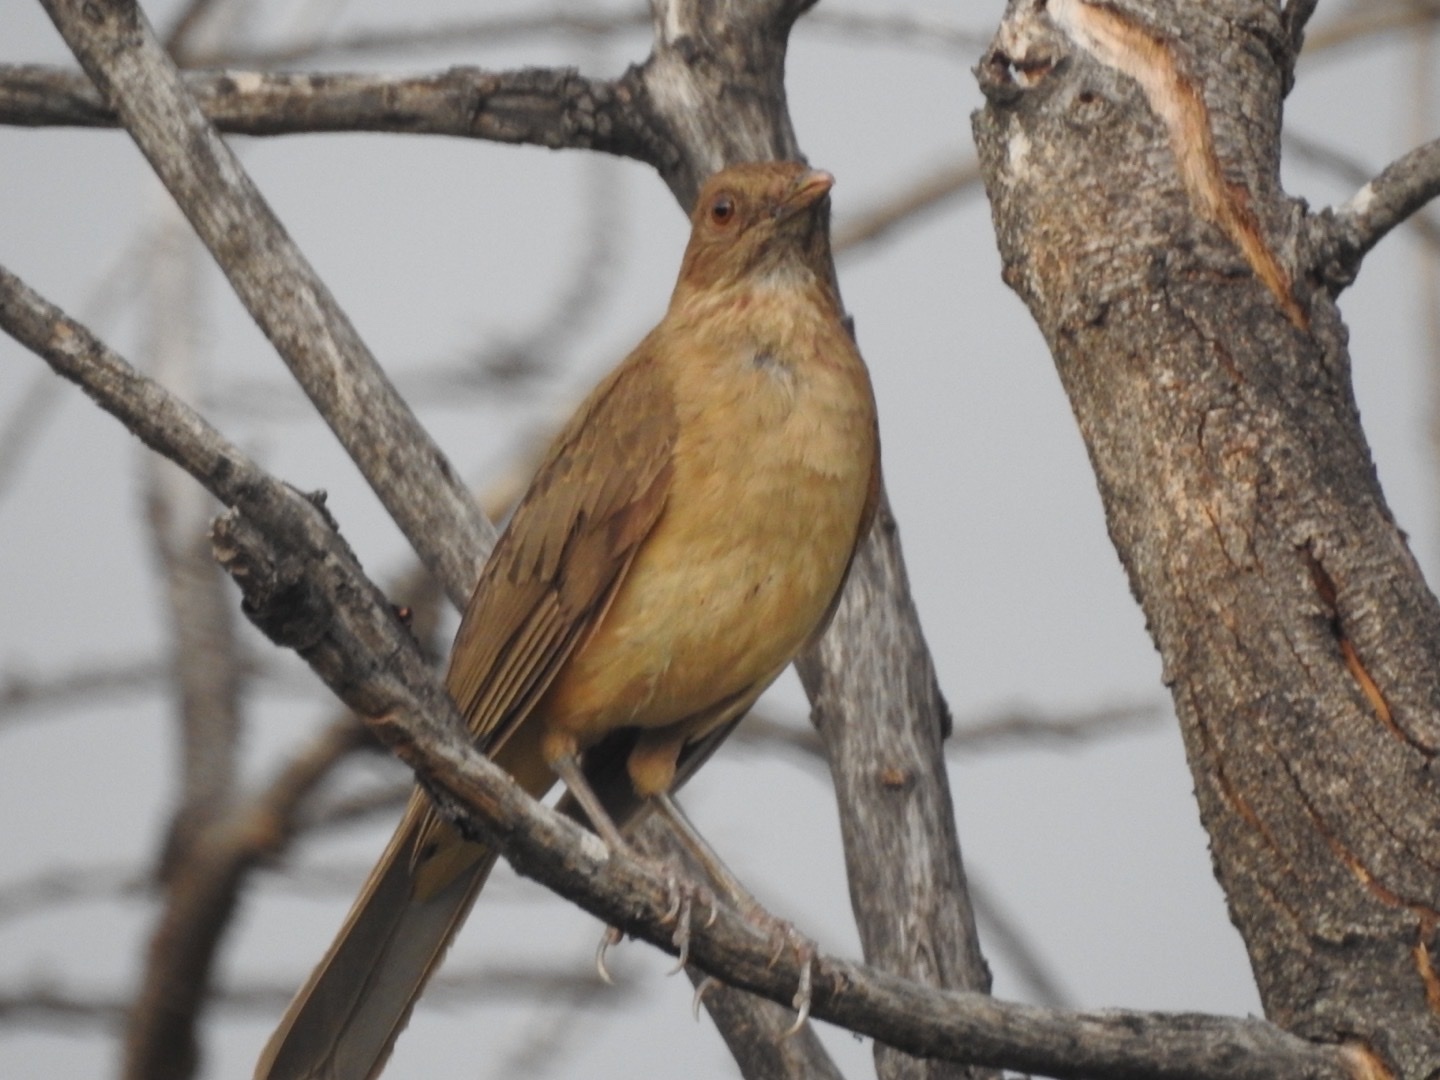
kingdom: Animalia
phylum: Chordata
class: Aves
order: Passeriformes
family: Turdidae
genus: Turdus
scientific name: Turdus grayi
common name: Clay-colored thrush
